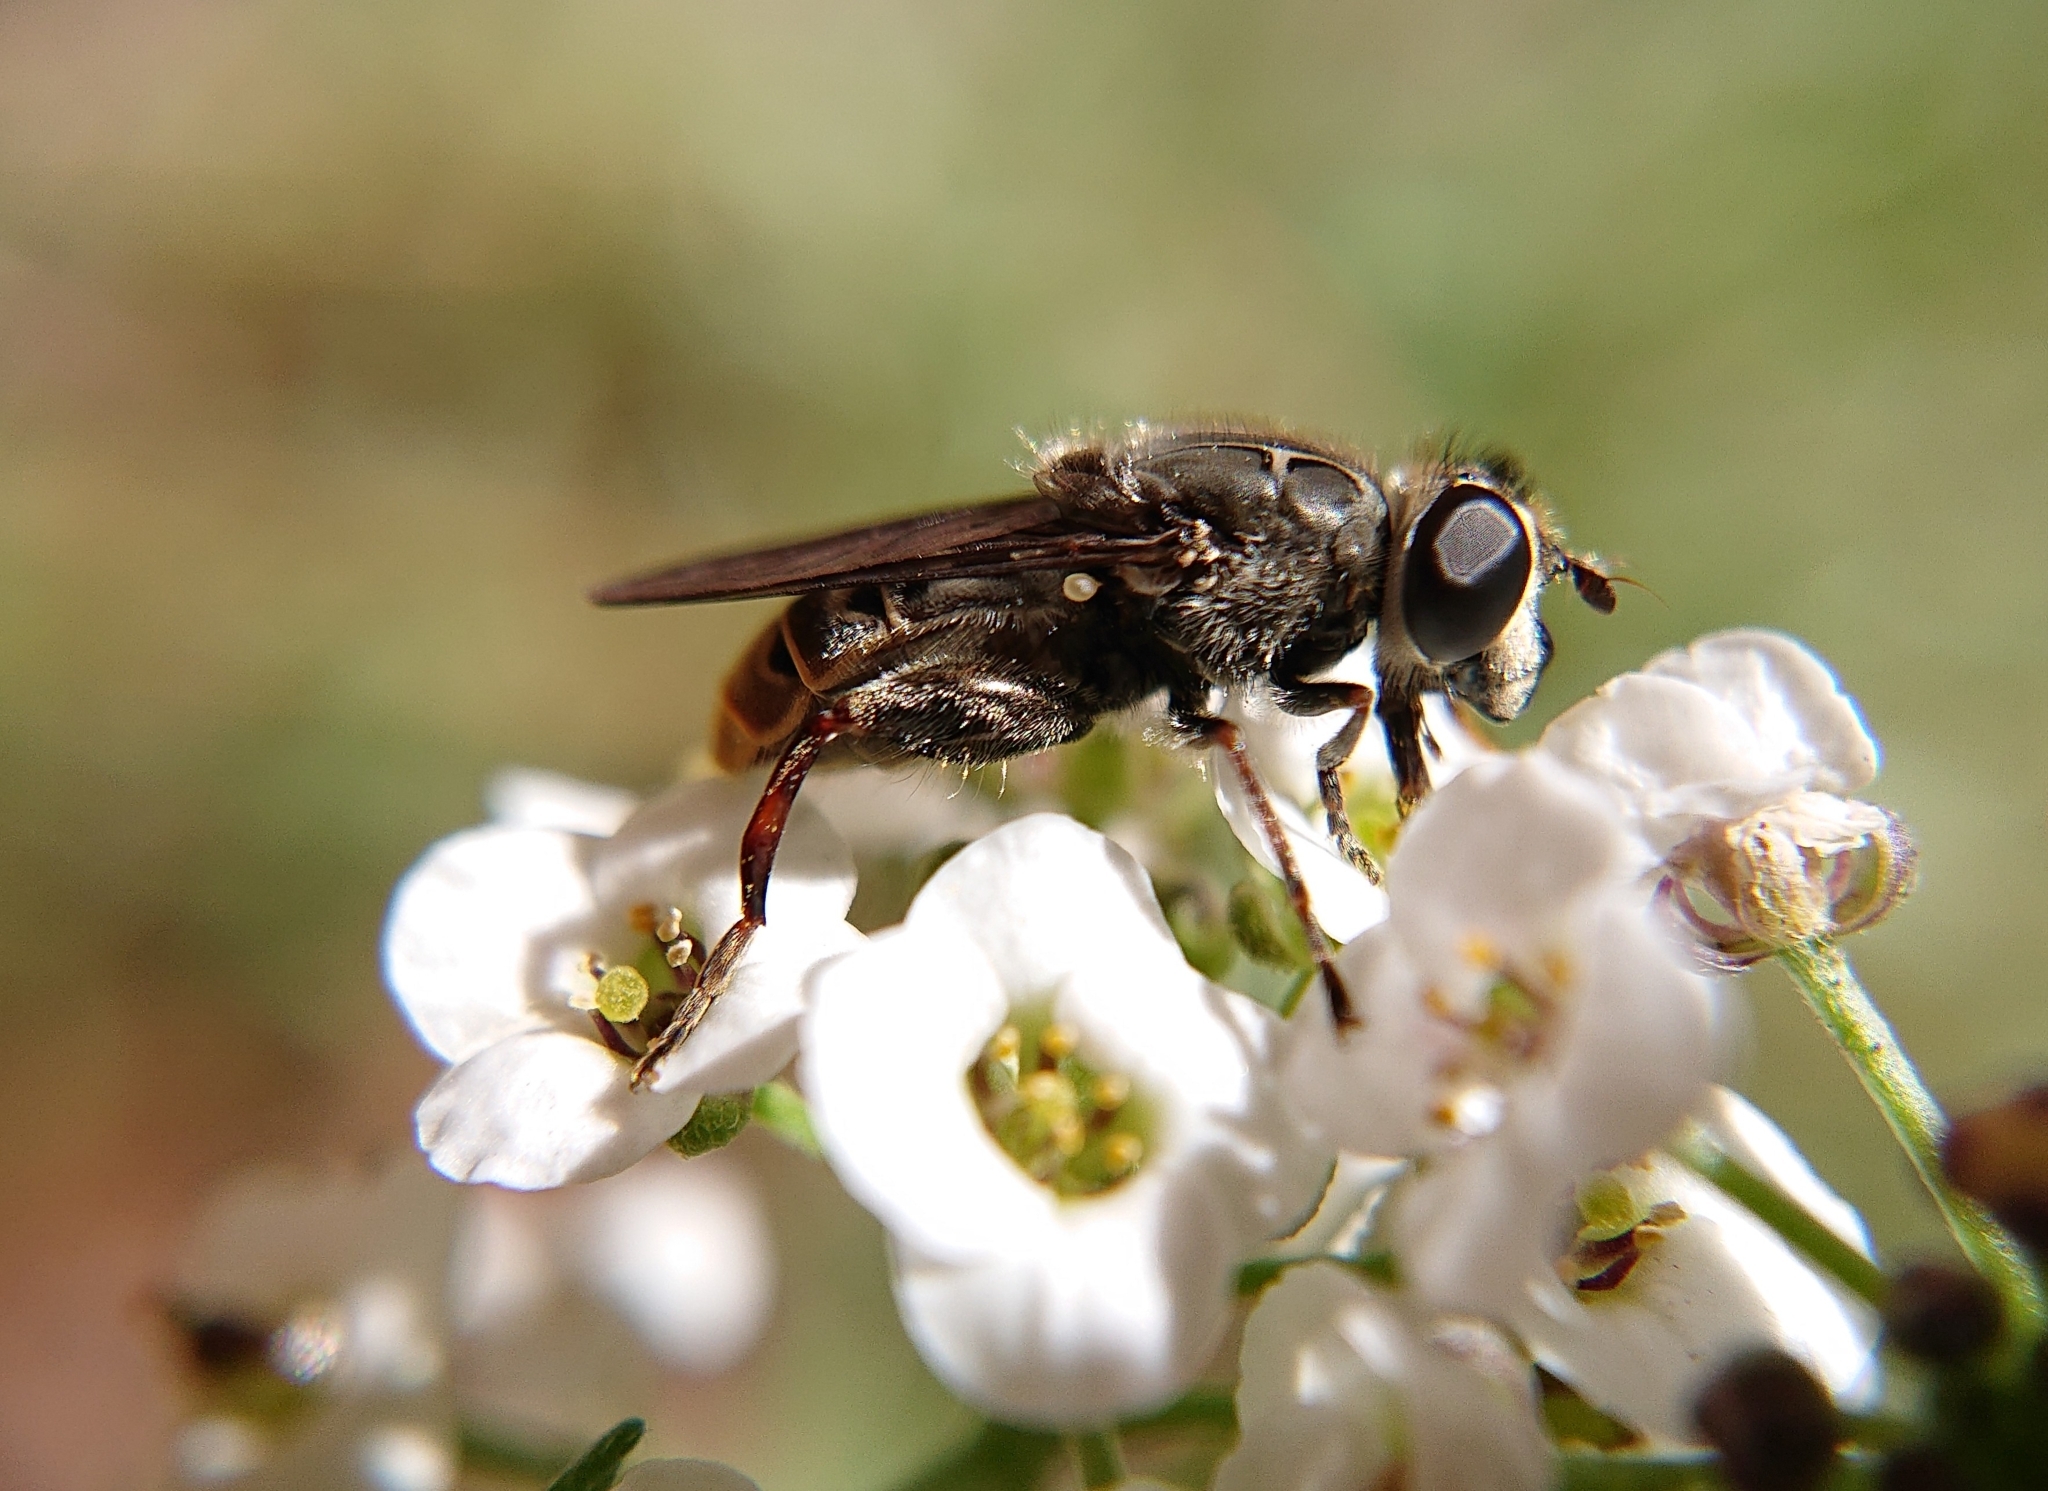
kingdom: Animalia
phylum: Arthropoda
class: Insecta
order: Diptera
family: Syrphidae
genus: Asemosyrphus
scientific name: Asemosyrphus
